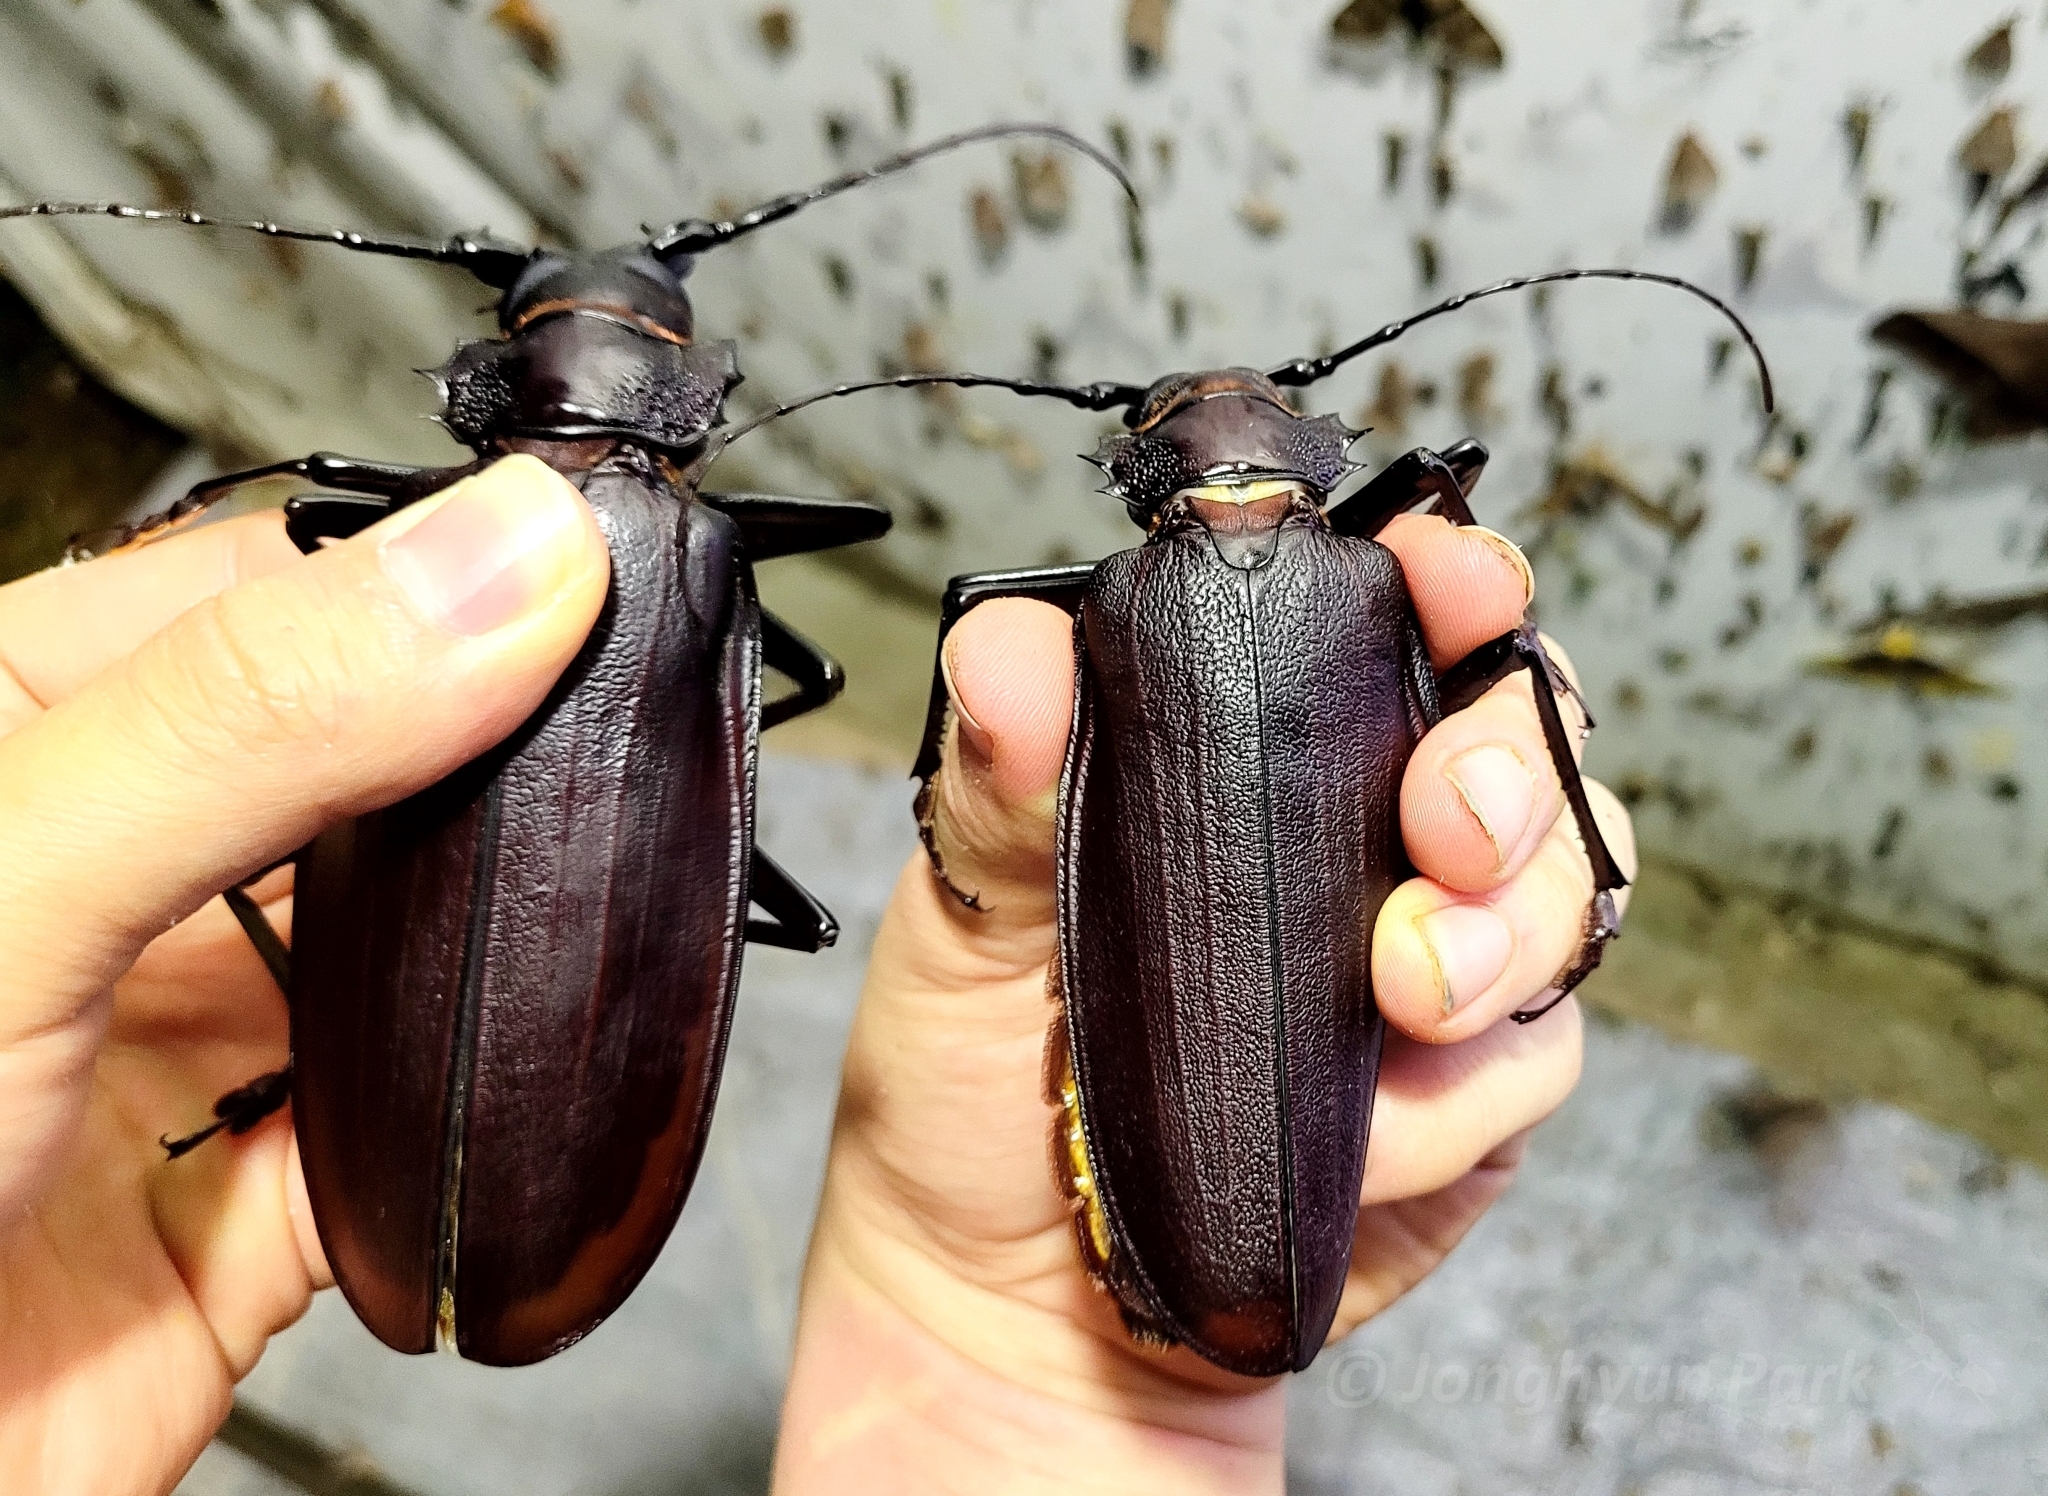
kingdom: Animalia
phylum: Arthropoda
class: Insecta
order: Coleoptera
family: Cerambycidae
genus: Titanus
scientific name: Titanus giganteus
